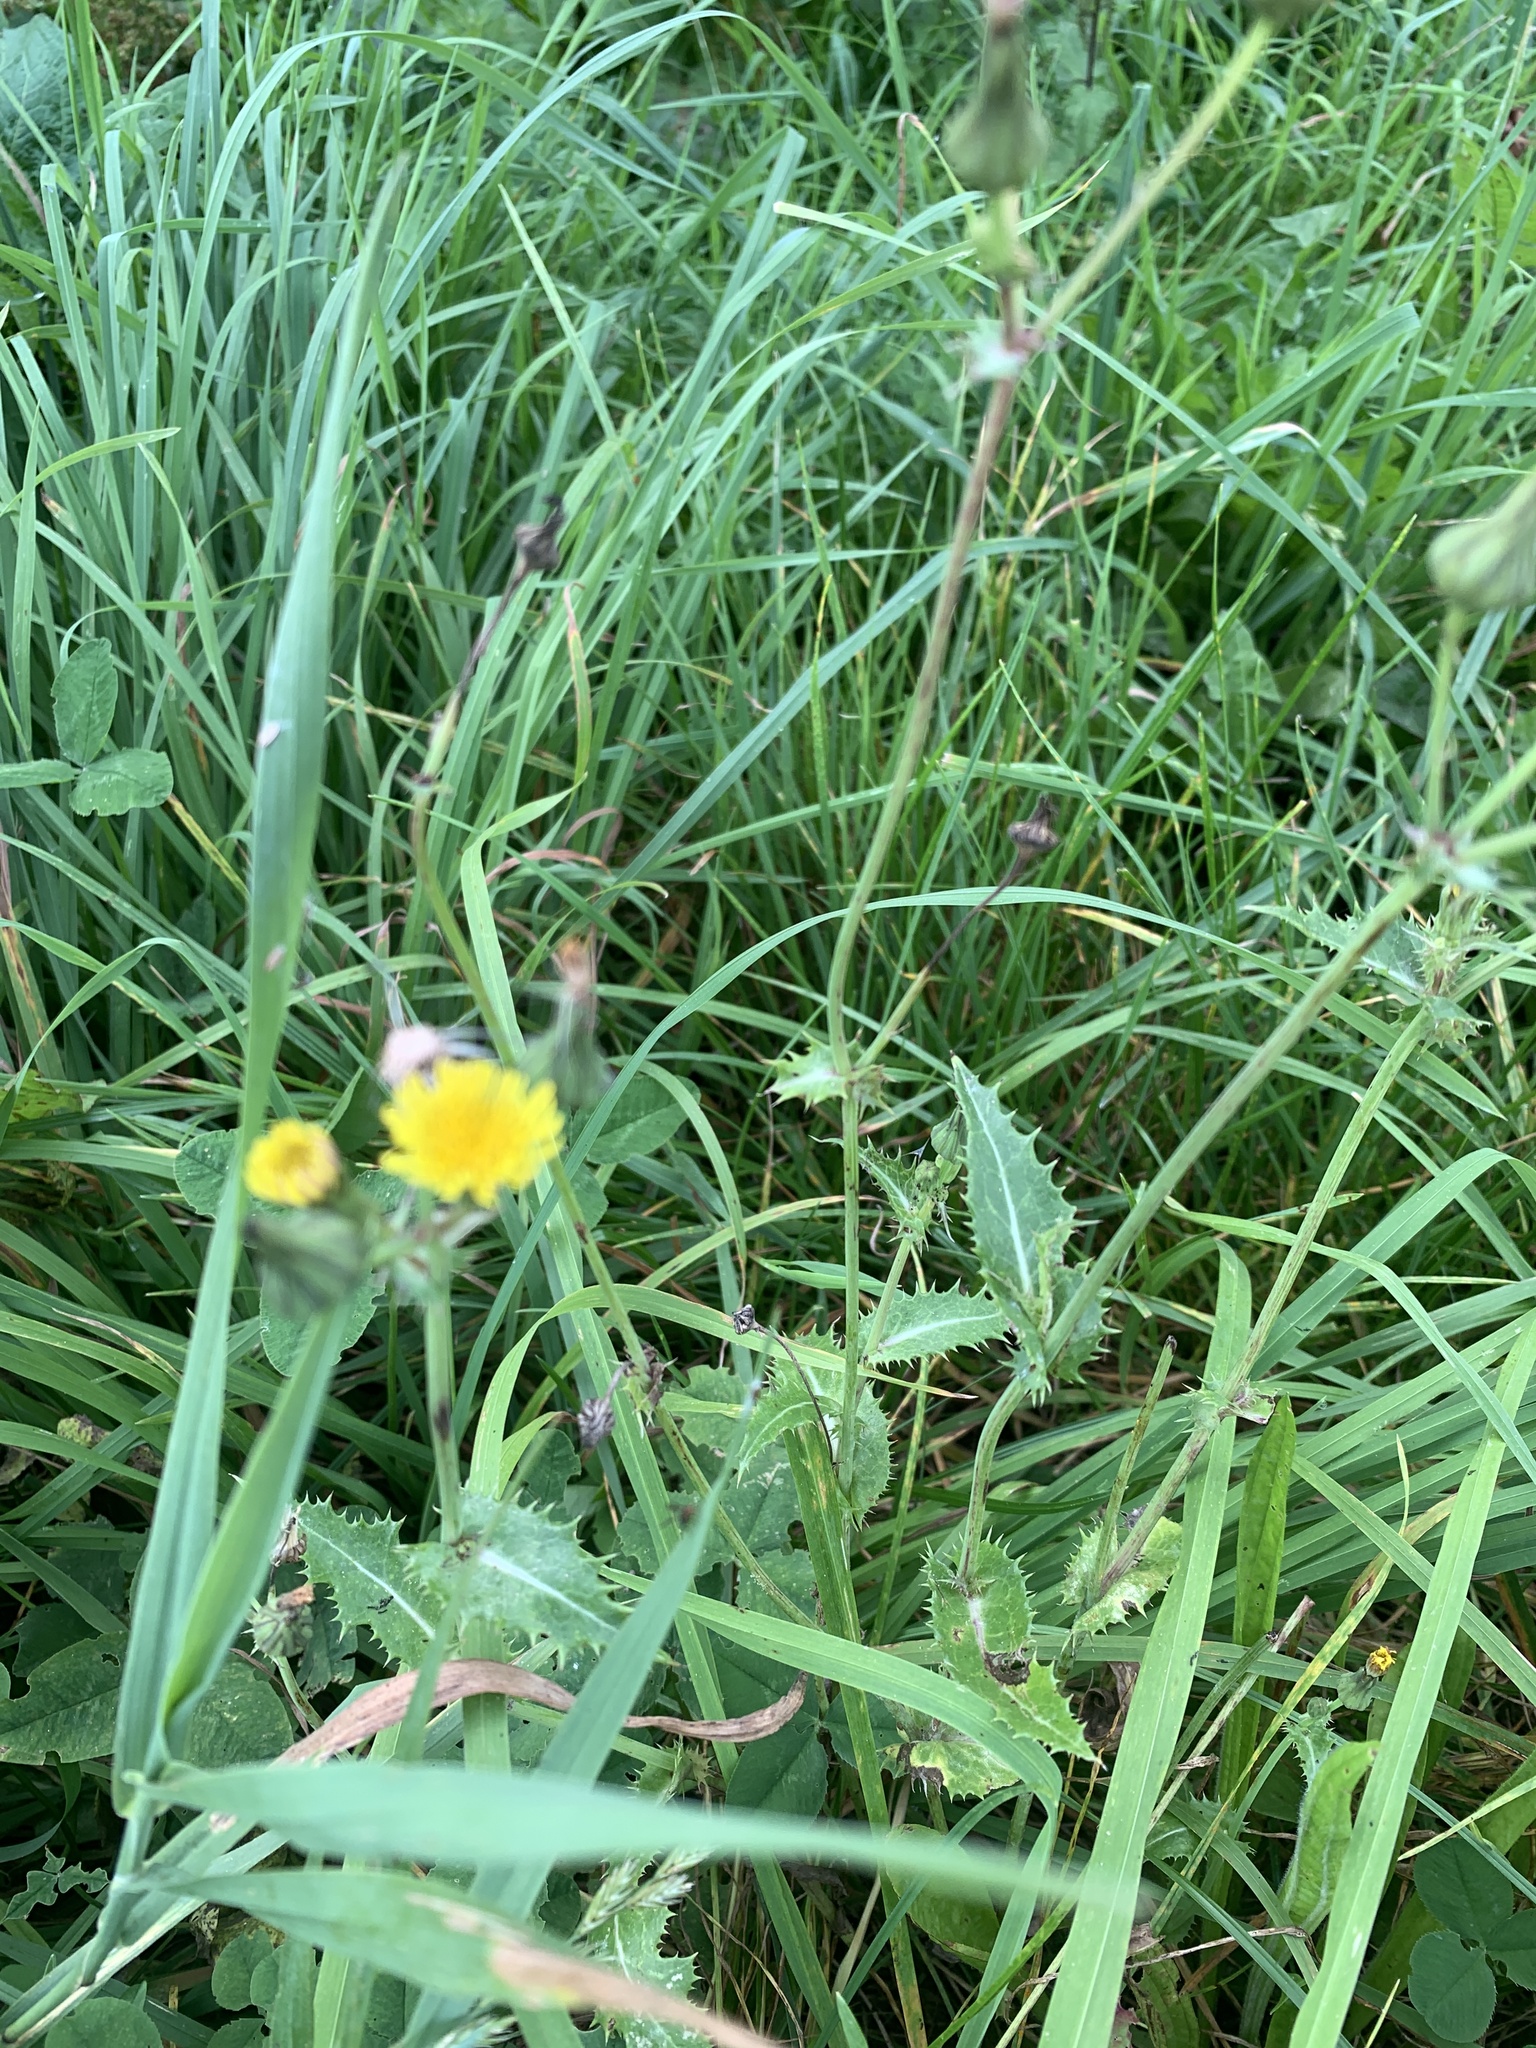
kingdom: Plantae
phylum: Tracheophyta
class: Magnoliopsida
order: Asterales
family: Asteraceae
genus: Sonchus
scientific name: Sonchus asper
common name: Prickly sow-thistle
